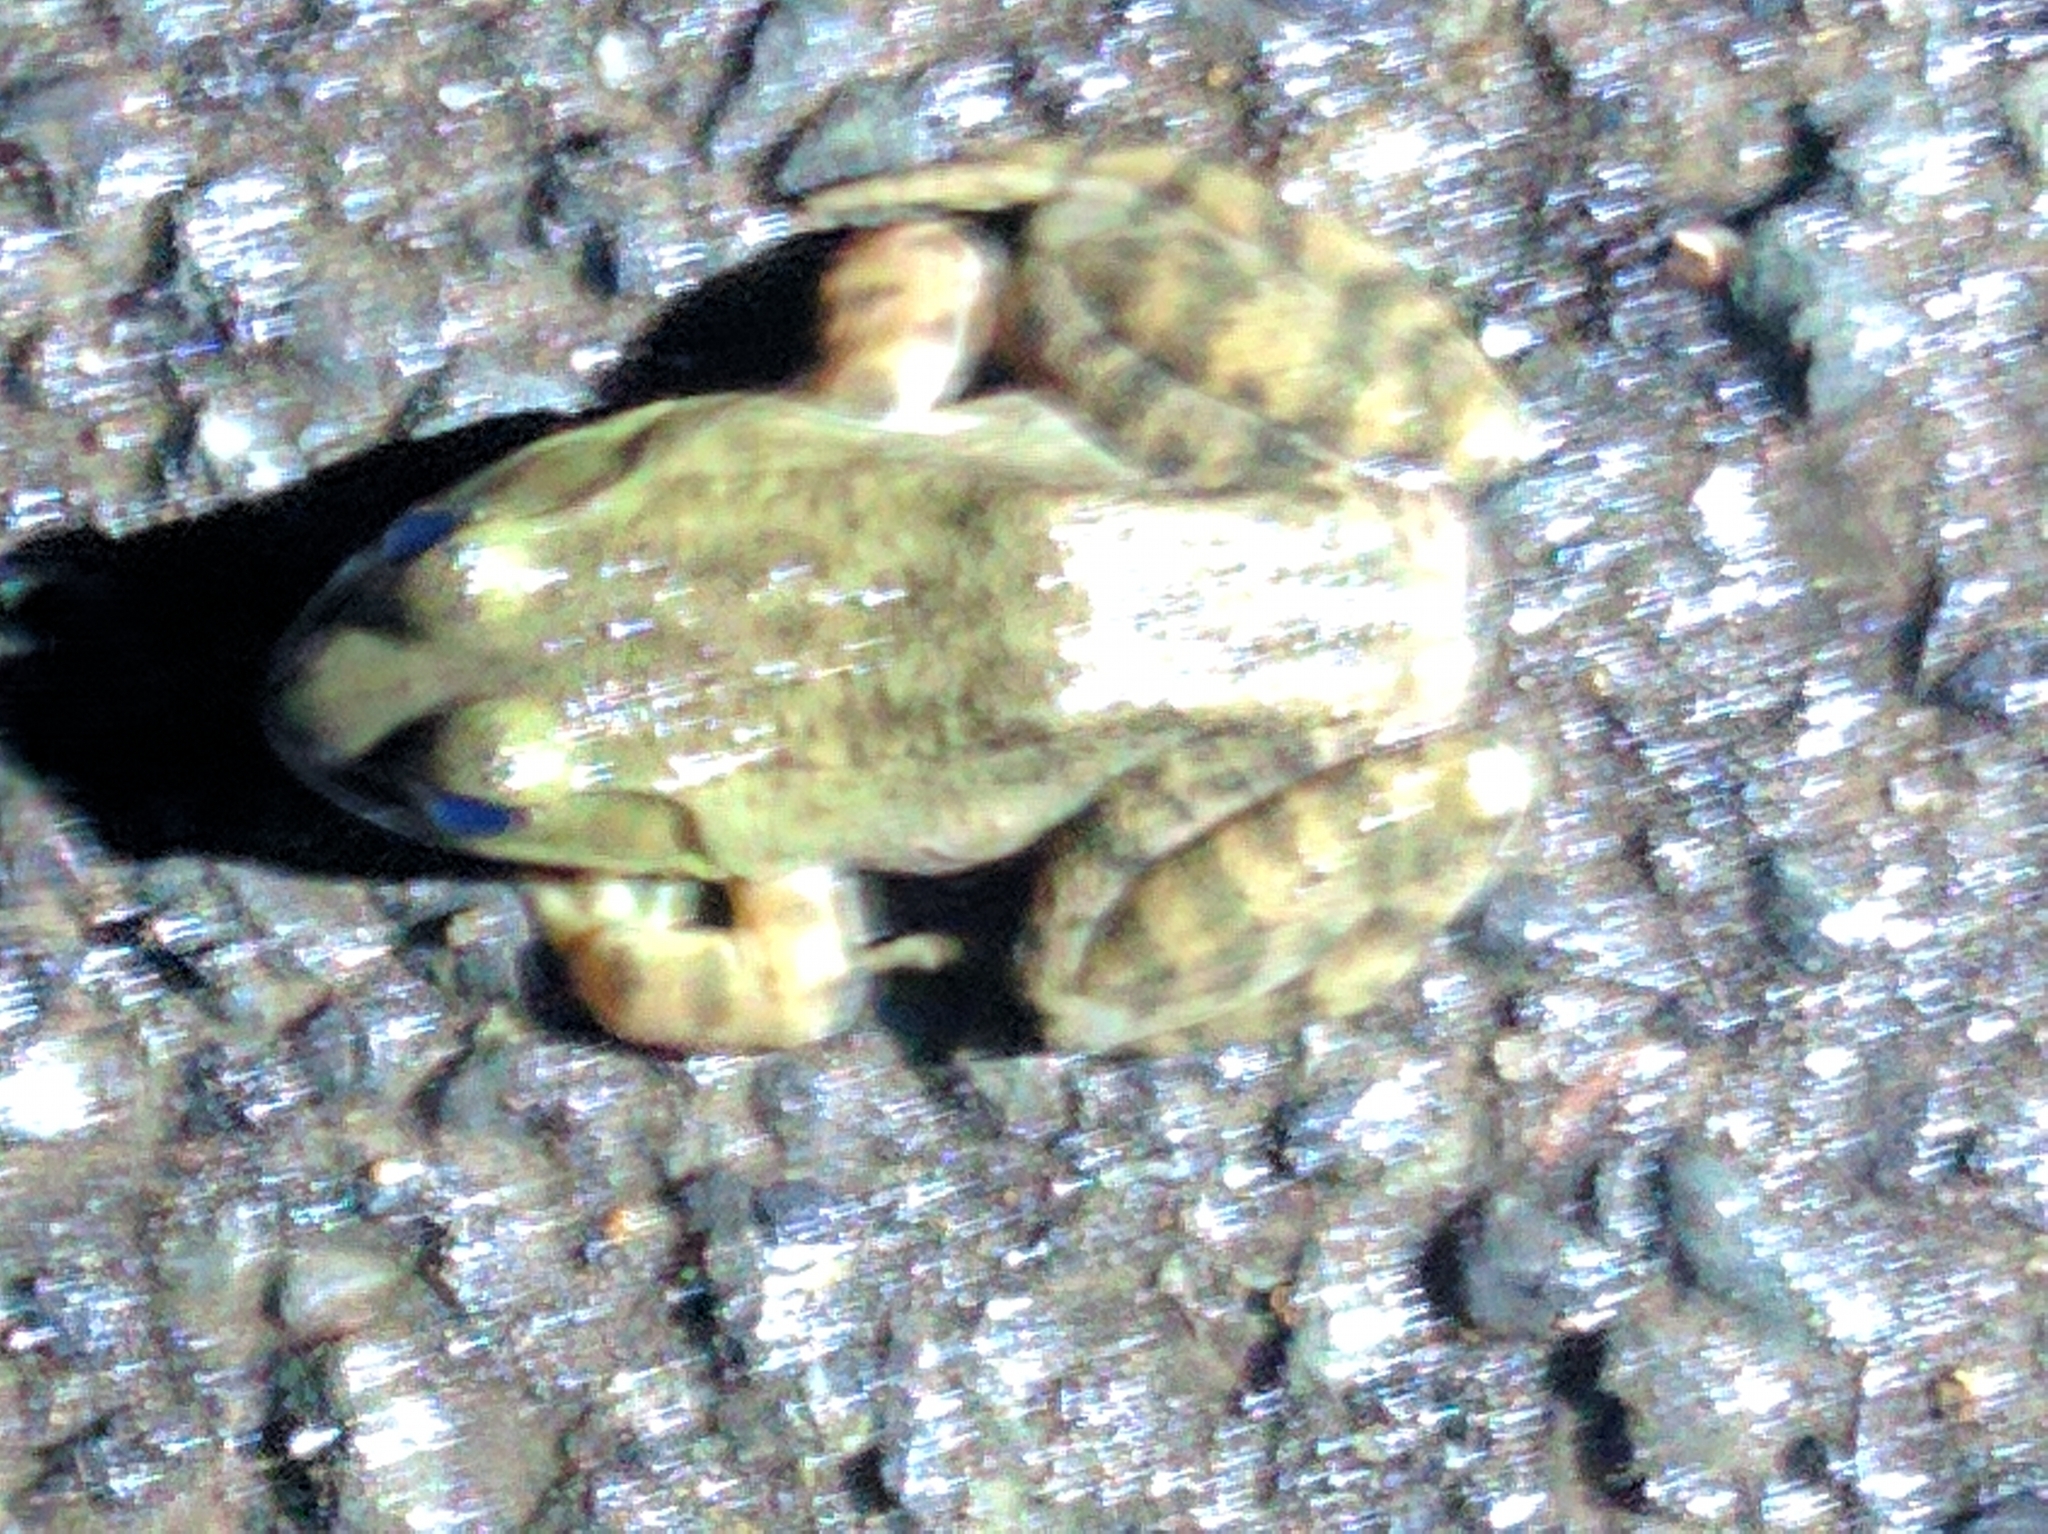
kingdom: Animalia
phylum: Chordata
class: Amphibia
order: Anura
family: Ranidae
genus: Lithobates
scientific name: Lithobates catesbeianus
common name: American bullfrog
